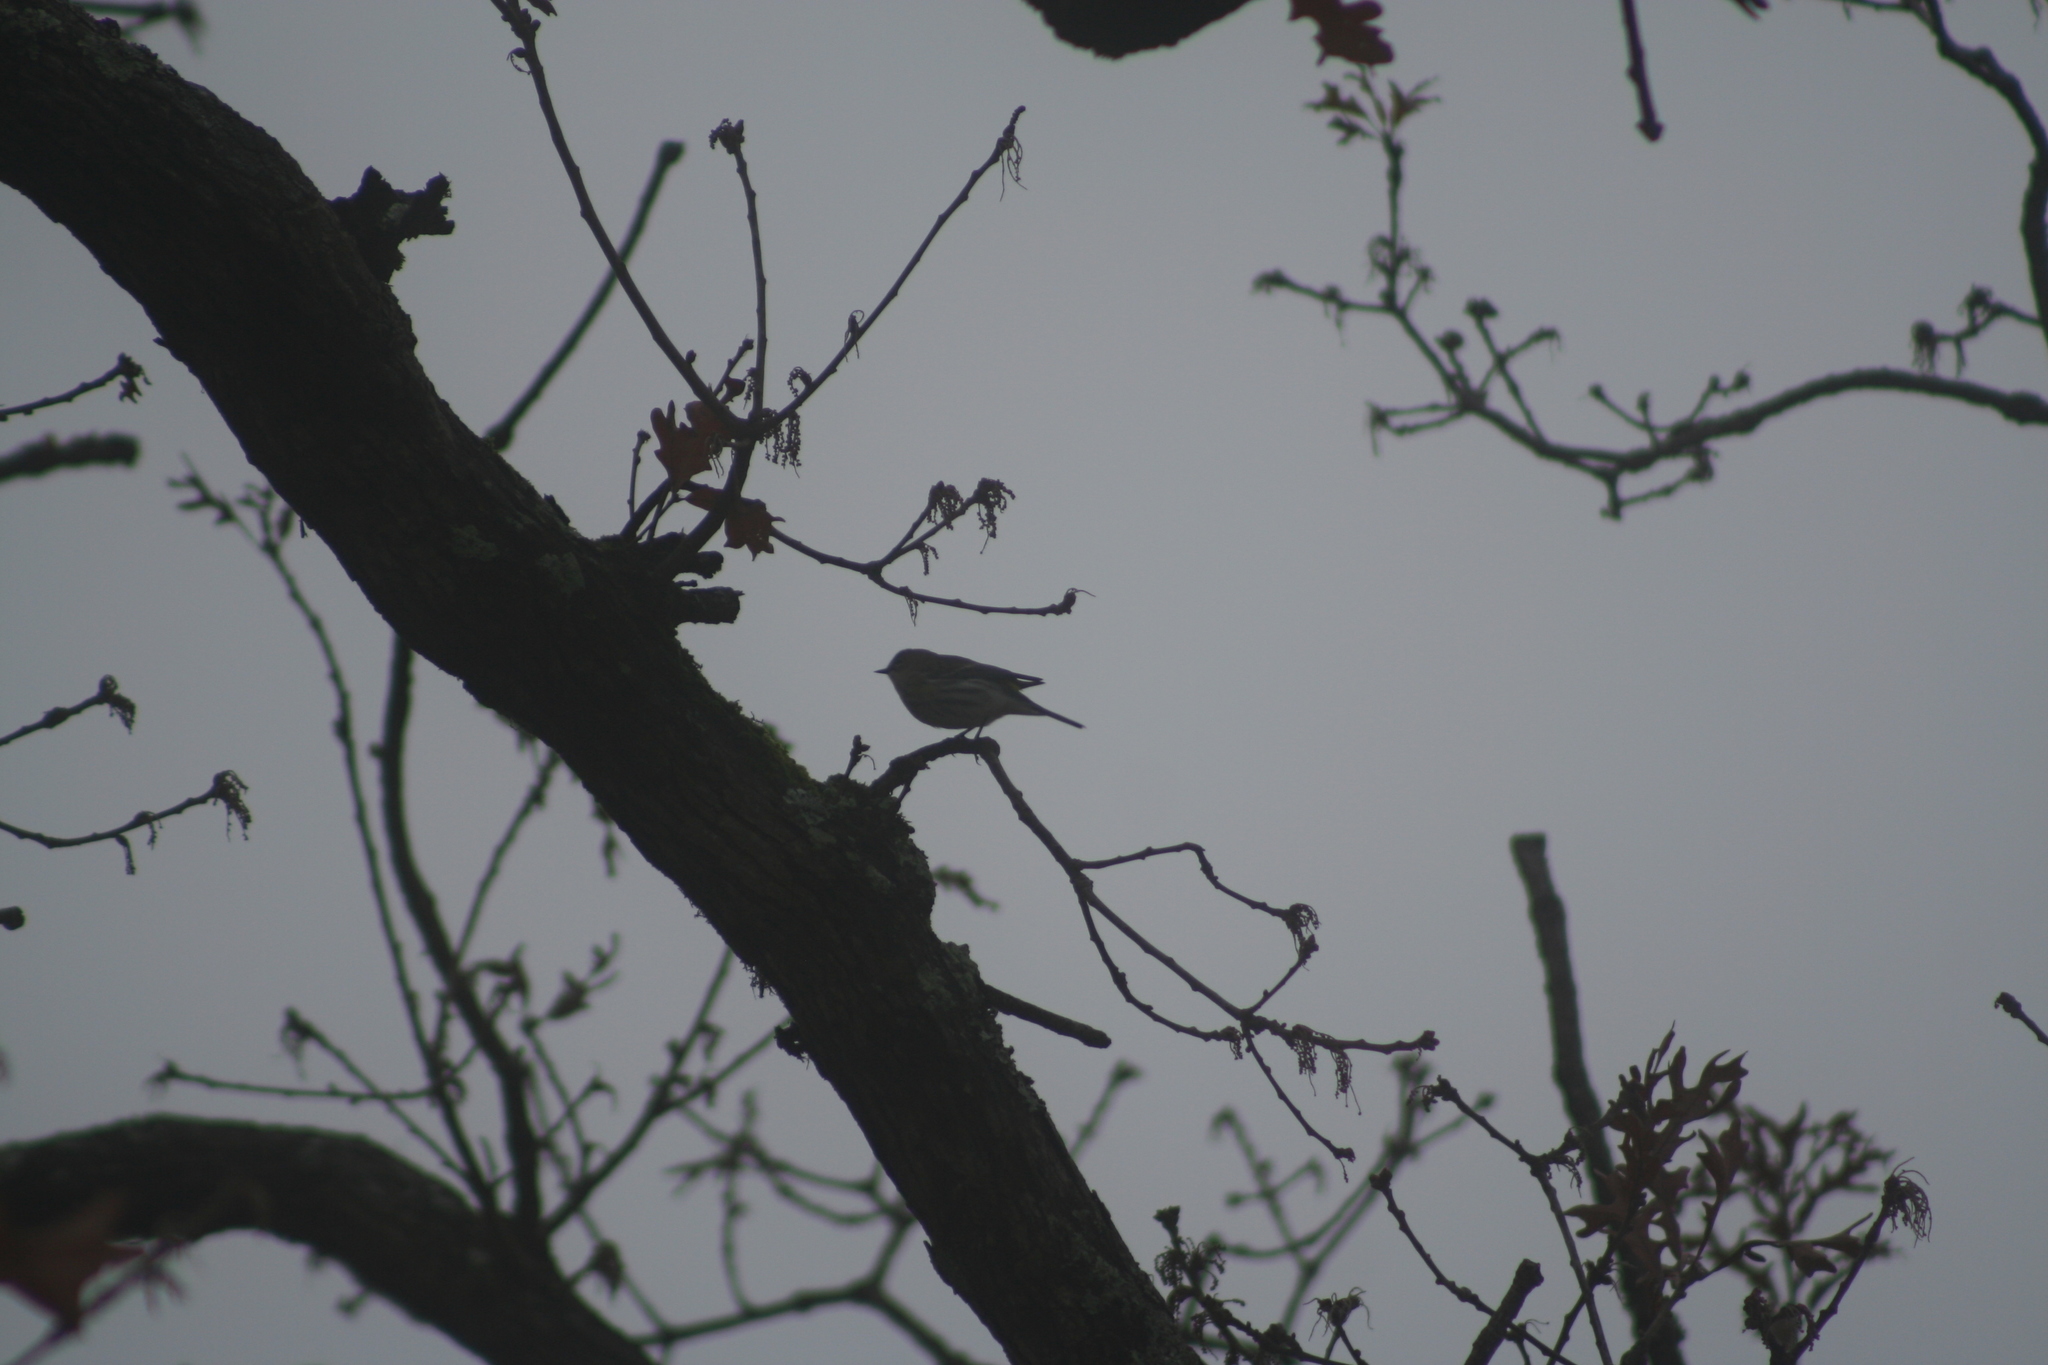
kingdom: Animalia
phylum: Chordata
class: Aves
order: Passeriformes
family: Parulidae
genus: Setophaga
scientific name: Setophaga coronata
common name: Myrtle warbler
